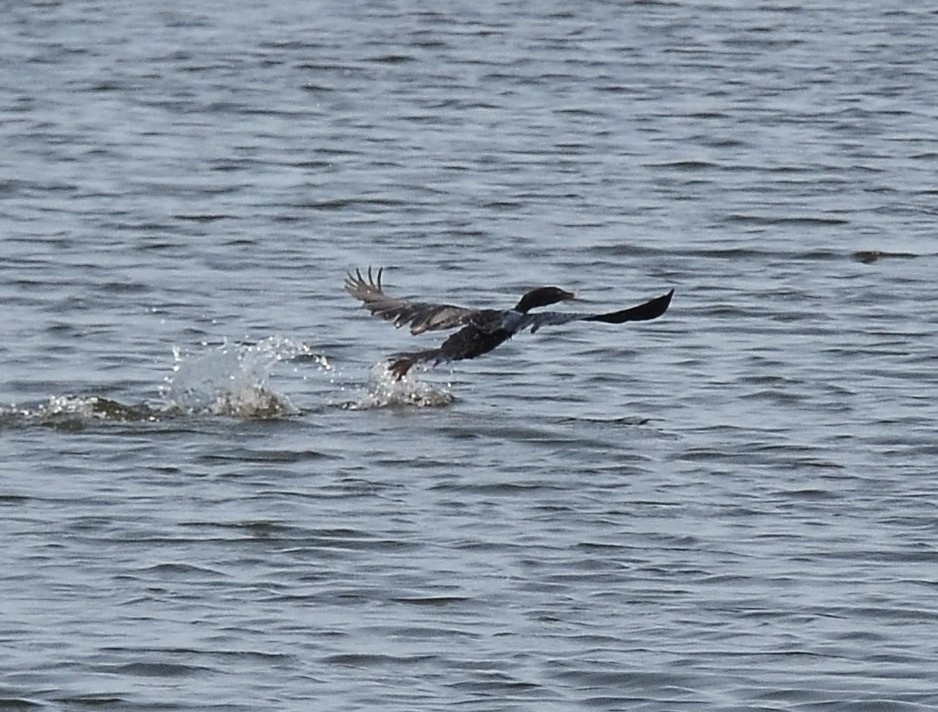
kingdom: Animalia
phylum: Chordata
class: Aves
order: Suliformes
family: Phalacrocoracidae
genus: Microcarbo
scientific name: Microcarbo niger
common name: Little cormorant
